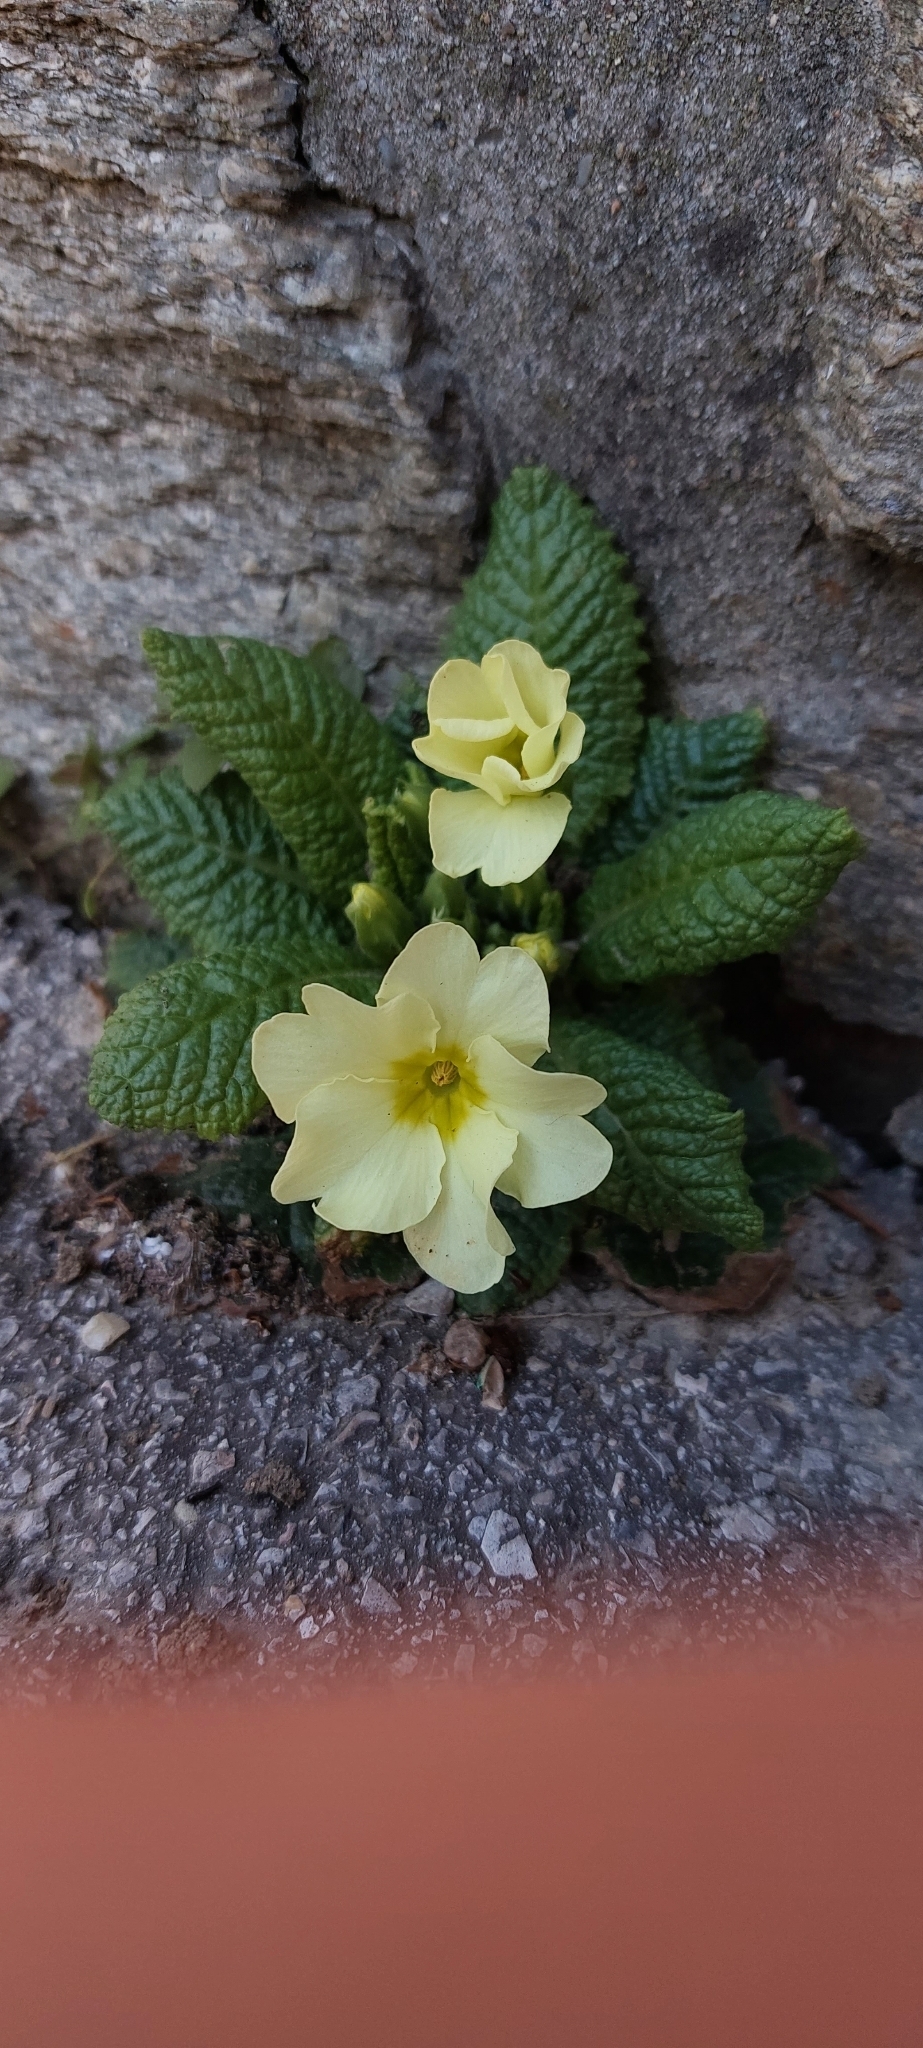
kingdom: Plantae
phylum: Tracheophyta
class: Magnoliopsida
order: Ericales
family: Primulaceae
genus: Primula
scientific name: Primula vulgaris
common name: Primrose
